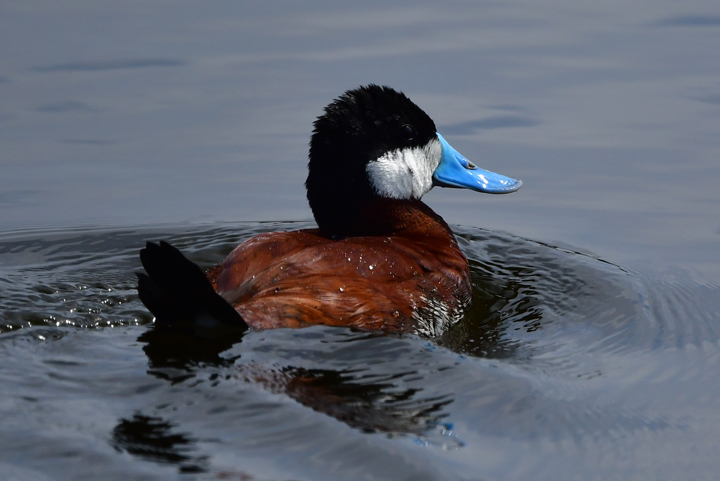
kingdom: Animalia
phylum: Chordata
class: Aves
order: Anseriformes
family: Anatidae
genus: Oxyura
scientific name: Oxyura jamaicensis
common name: Ruddy duck
